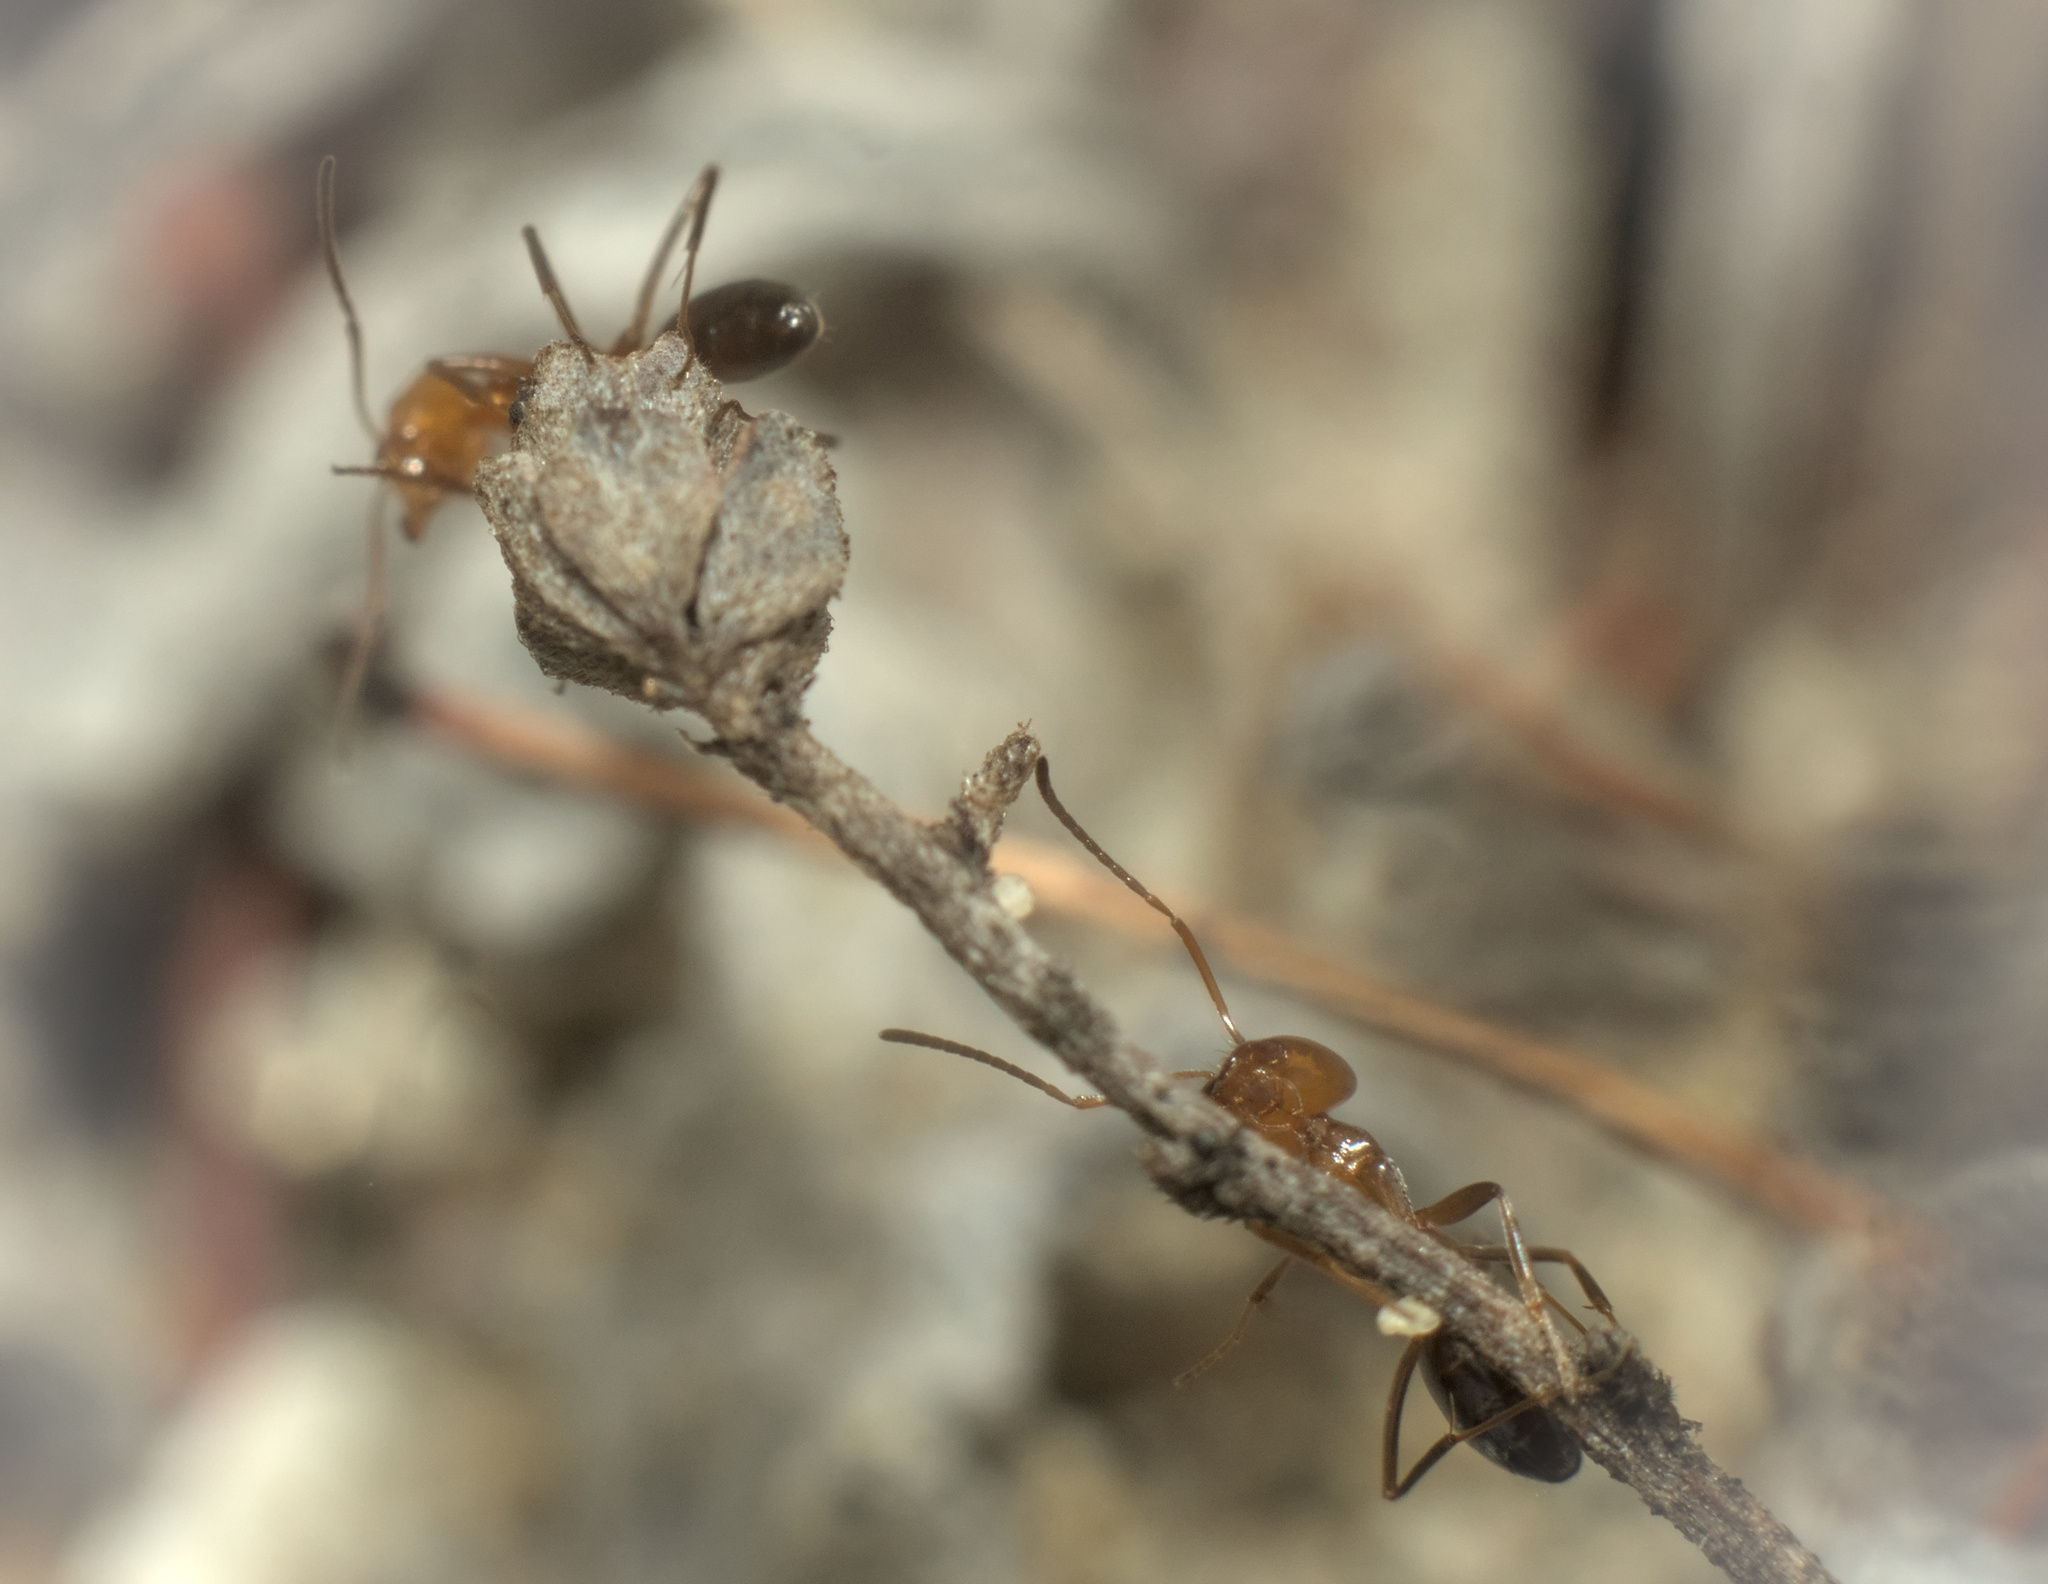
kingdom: Animalia
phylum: Arthropoda
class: Insecta
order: Hymenoptera
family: Formicidae
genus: Dorymyrmex
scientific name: Dorymyrmex bicolor
